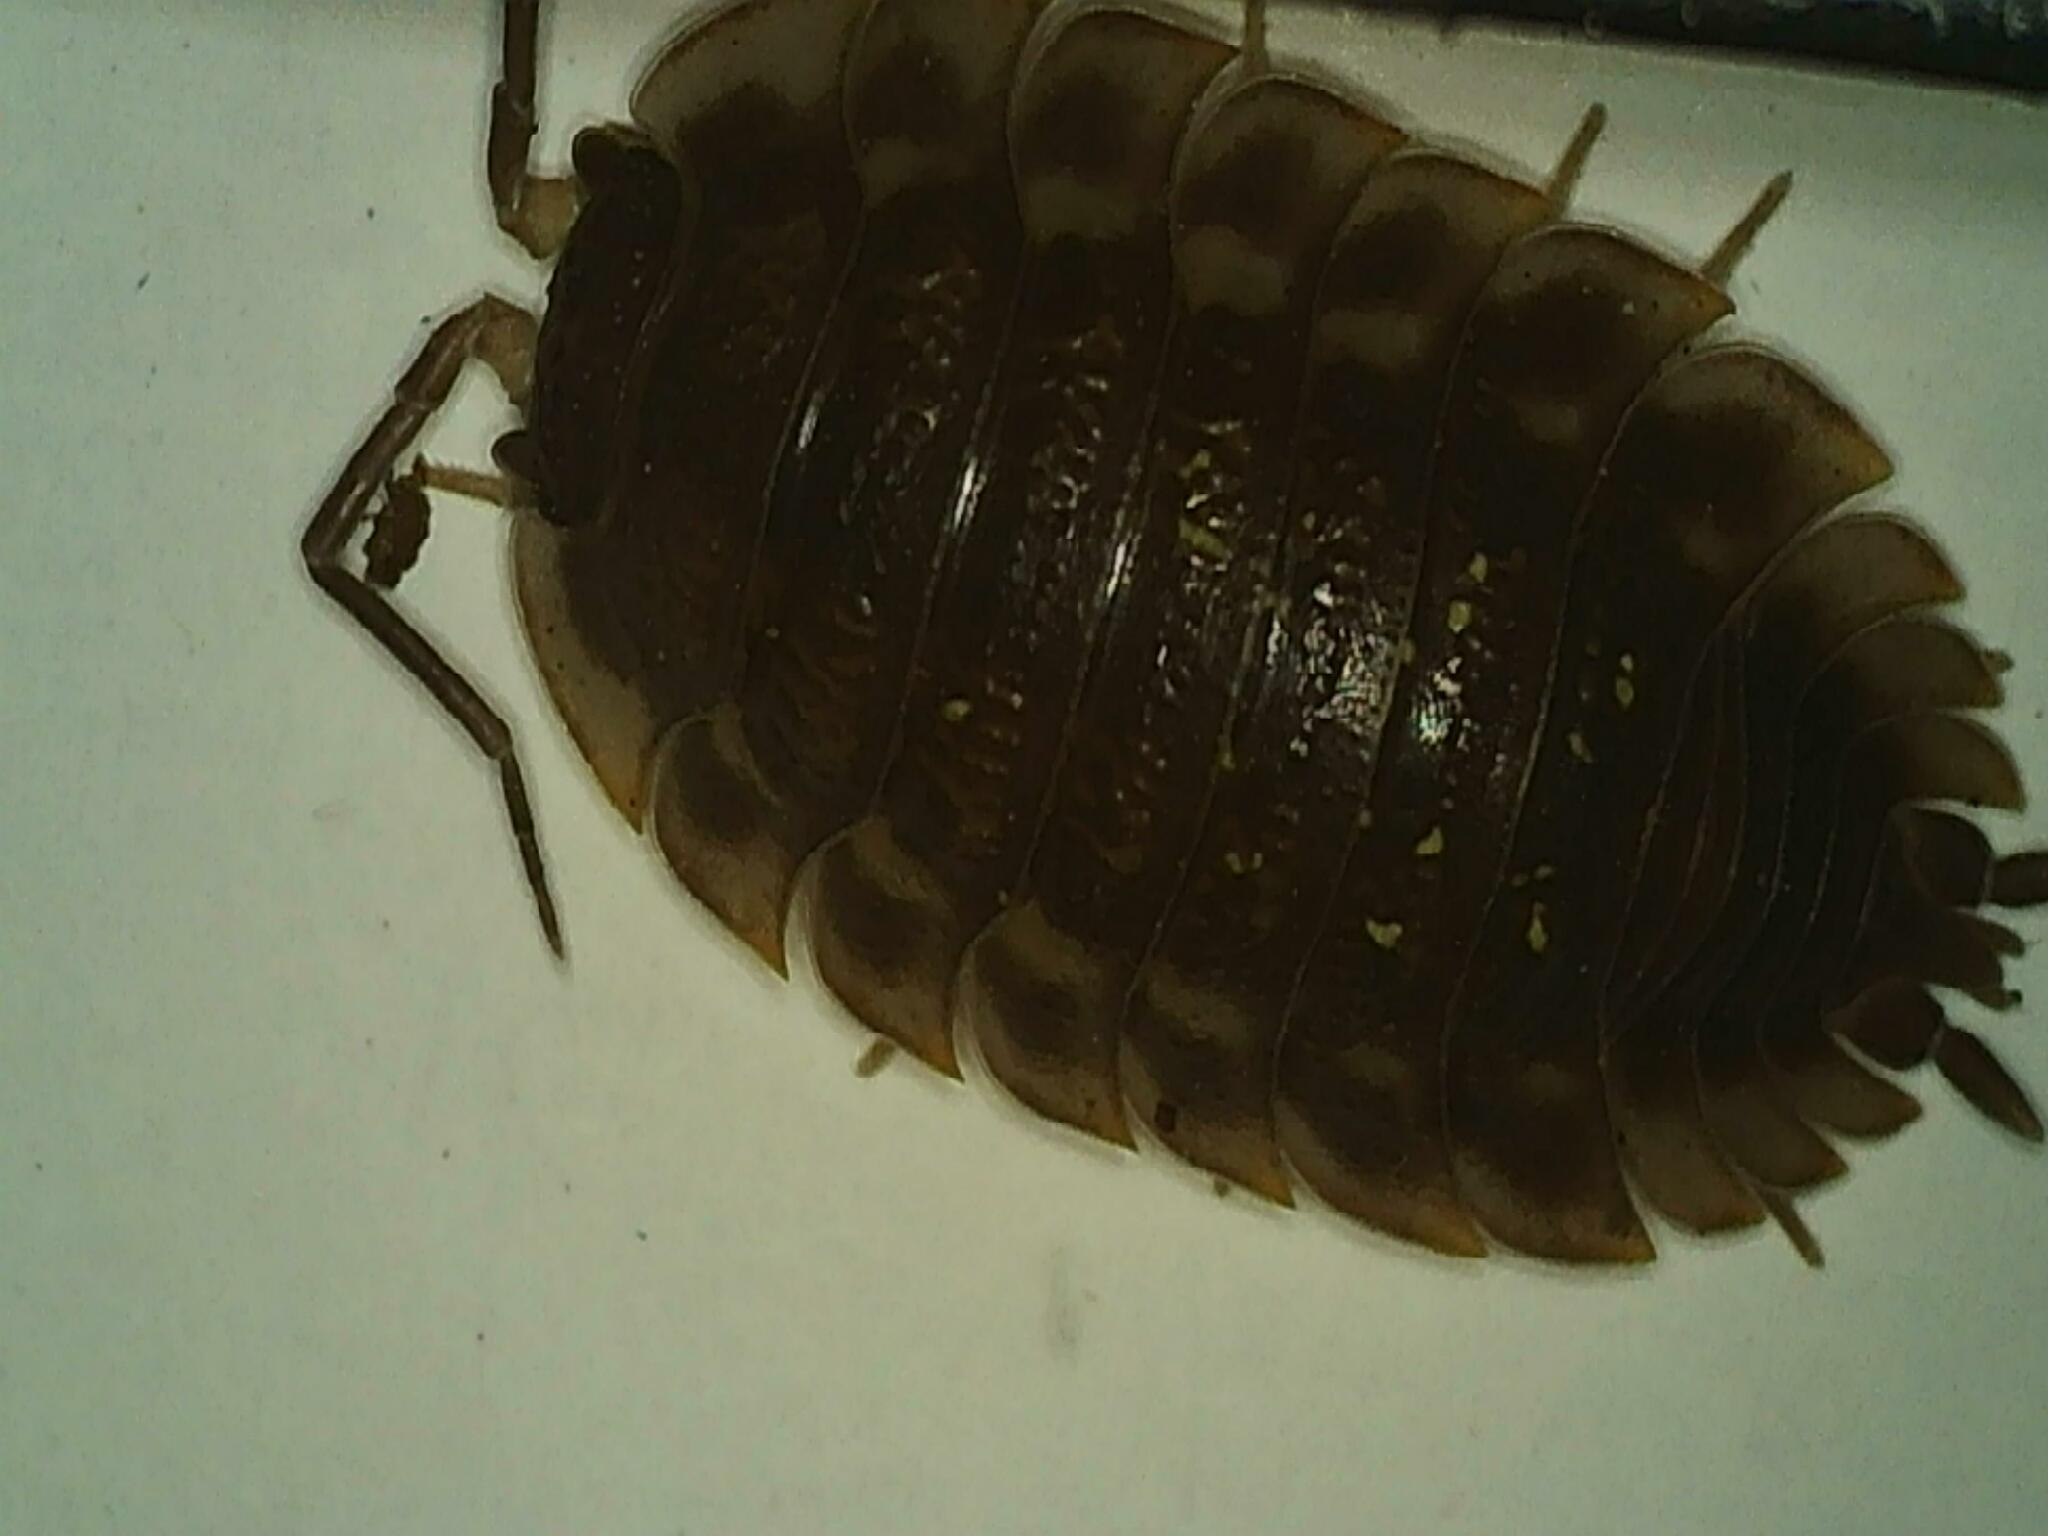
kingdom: Animalia
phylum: Arthropoda
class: Malacostraca
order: Isopoda
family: Oniscidae
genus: Oniscus
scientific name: Oniscus asellus
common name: Common shiny woodlouse
